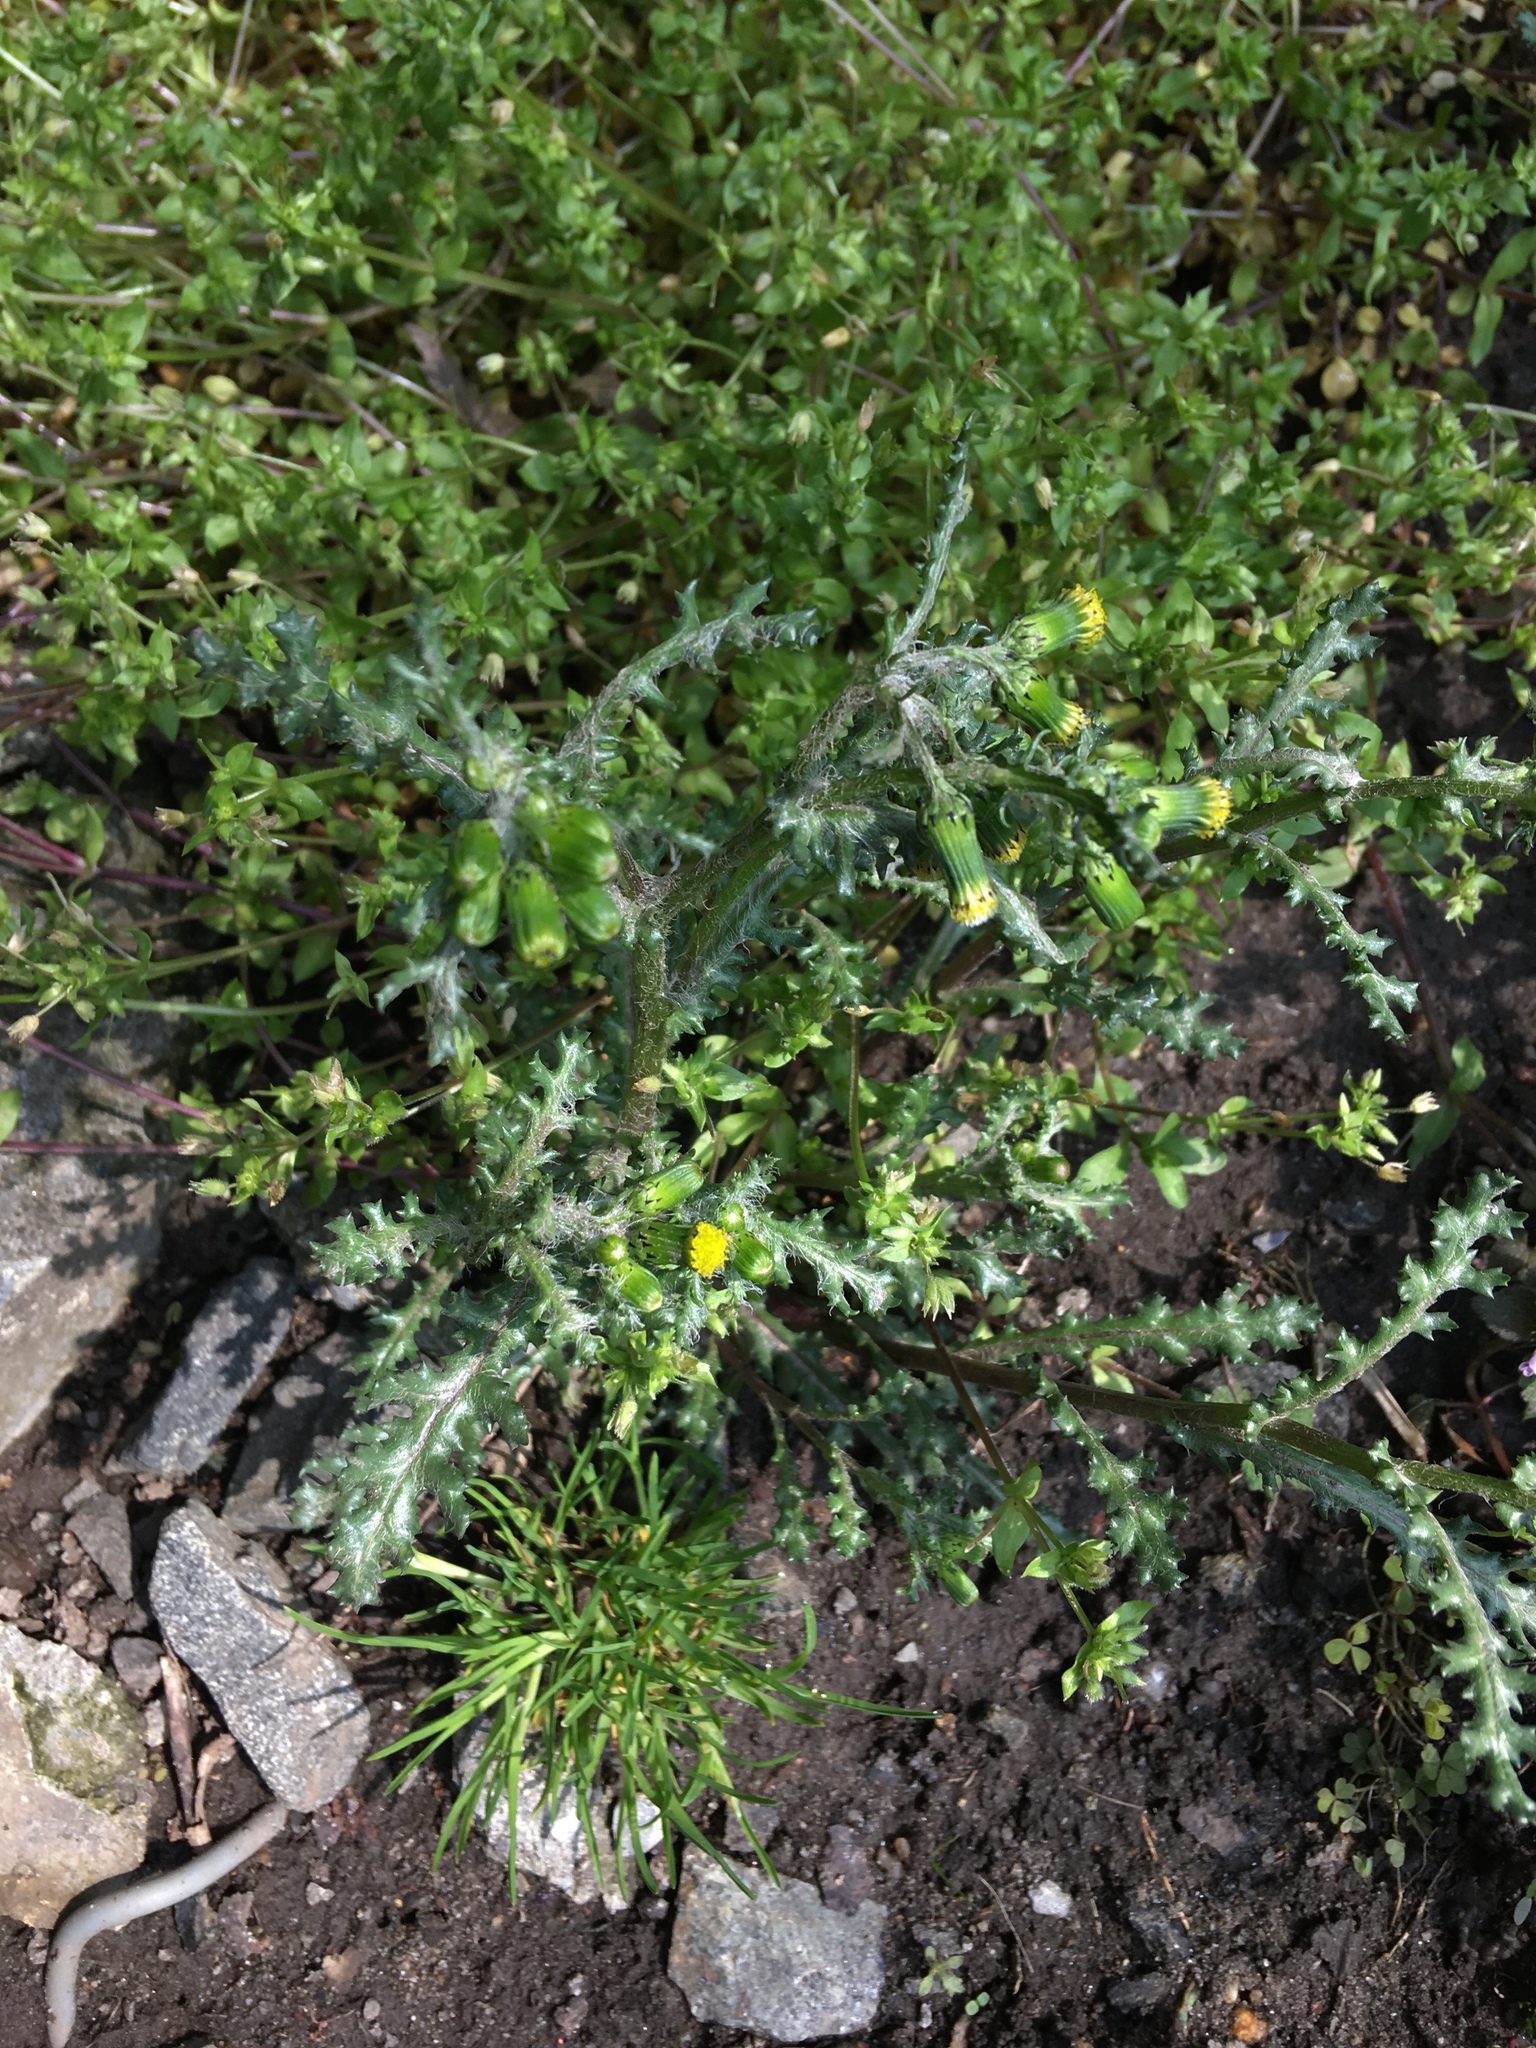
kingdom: Plantae
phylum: Tracheophyta
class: Magnoliopsida
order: Asterales
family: Asteraceae
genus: Senecio
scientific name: Senecio vulgaris
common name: Old-man-in-the-spring
